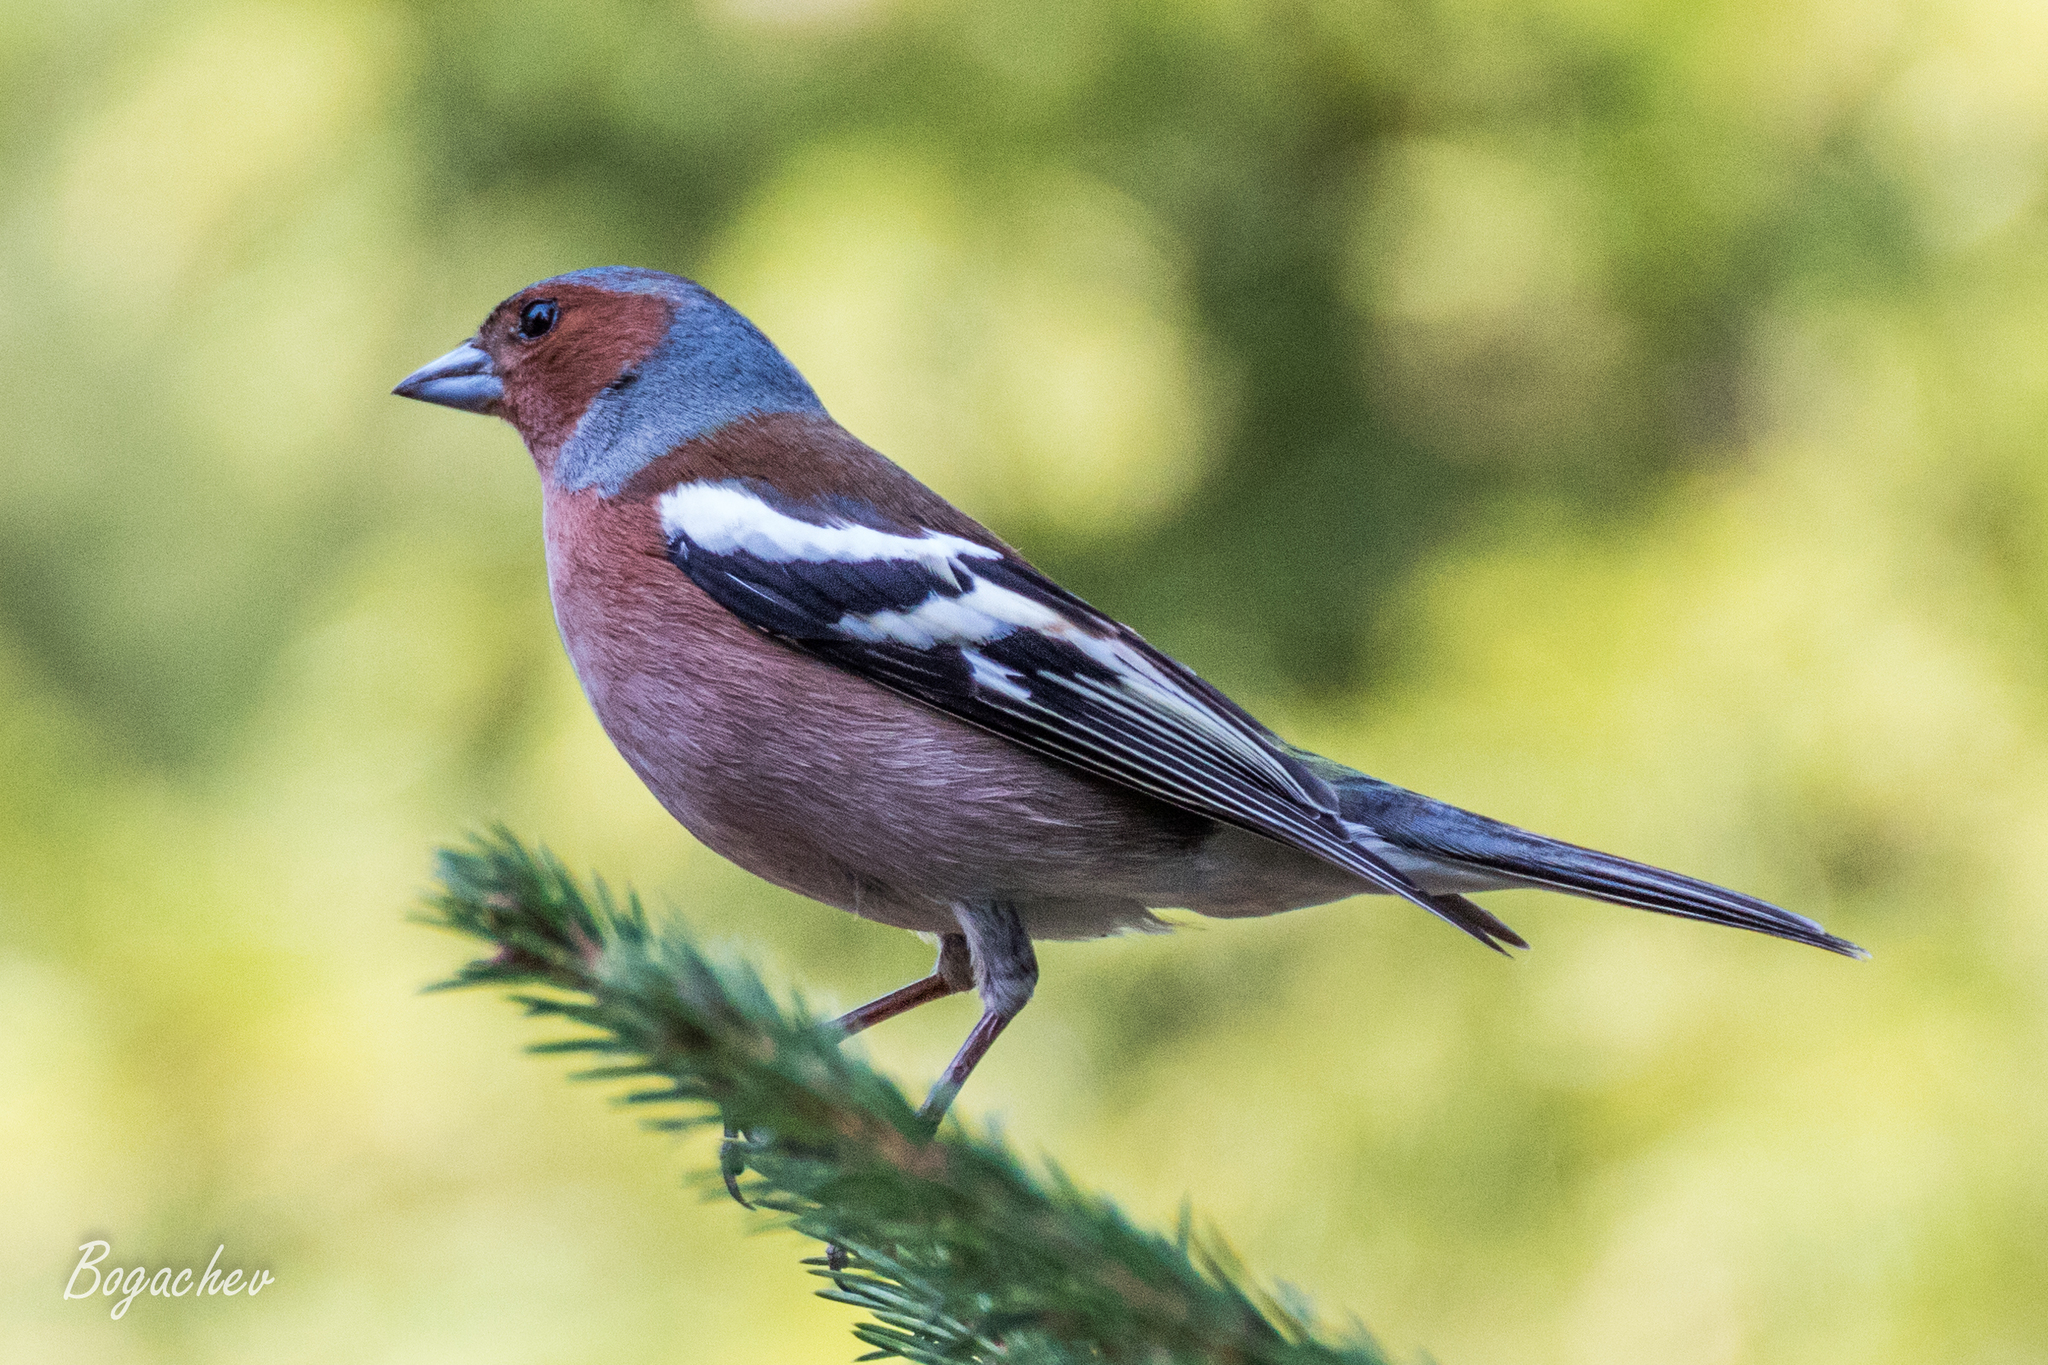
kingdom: Animalia
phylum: Chordata
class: Aves
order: Passeriformes
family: Fringillidae
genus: Fringilla
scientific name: Fringilla coelebs
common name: Common chaffinch
